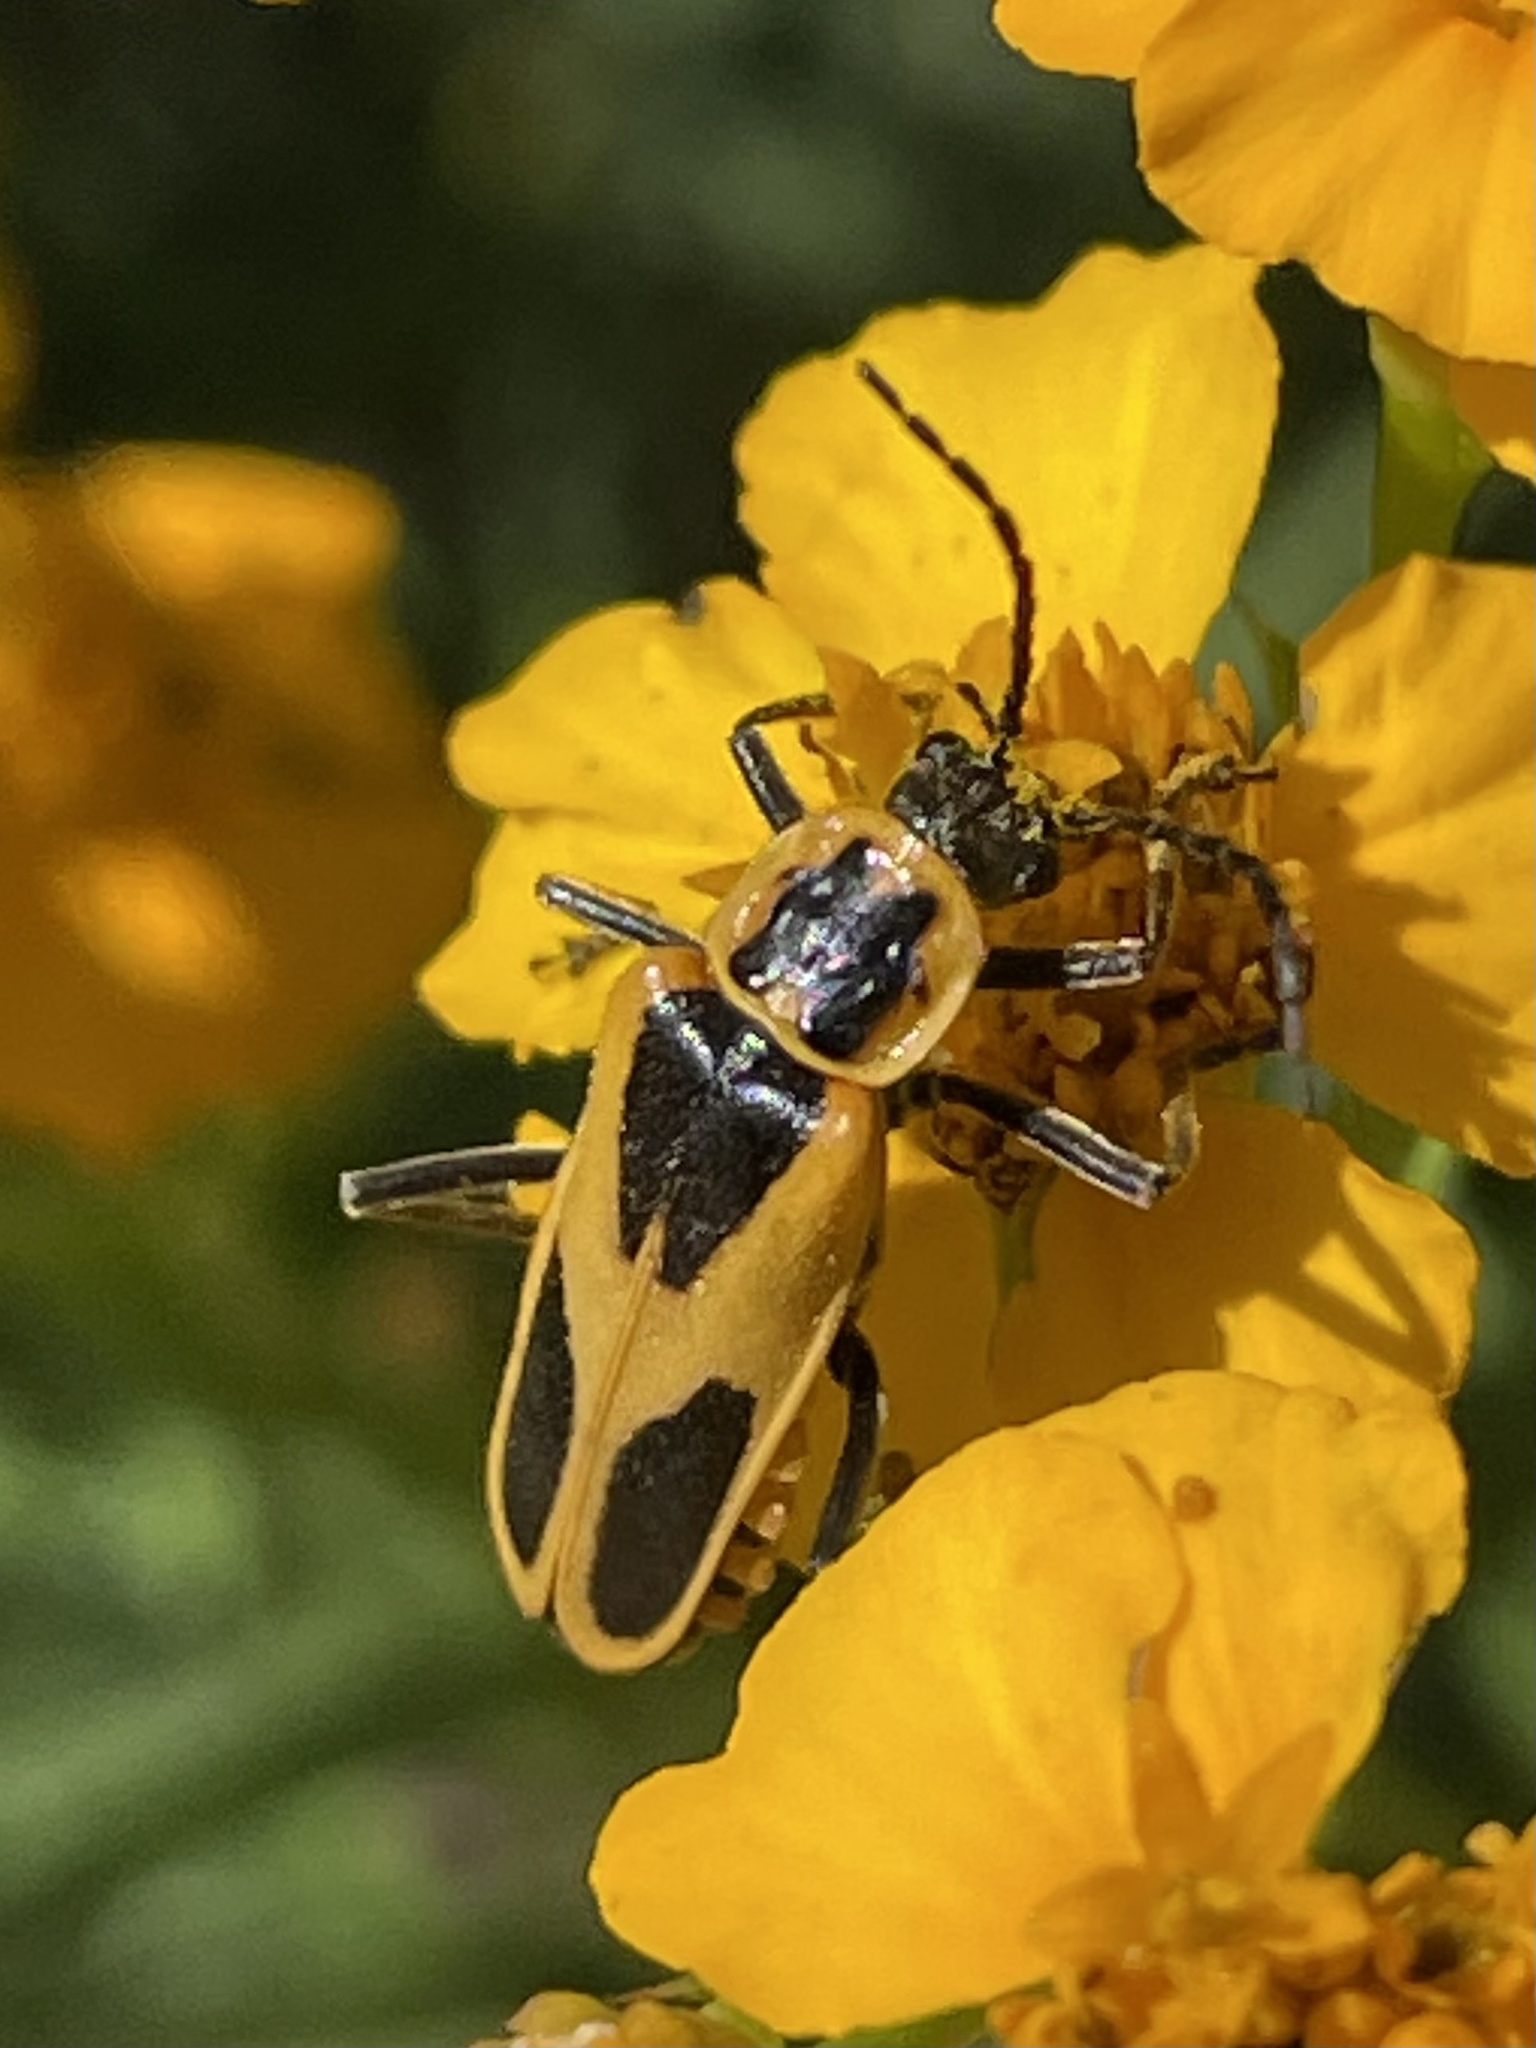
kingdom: Animalia
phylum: Arthropoda
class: Insecta
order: Coleoptera
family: Cantharidae
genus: Chauliognathus
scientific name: Chauliognathus scutellaris
